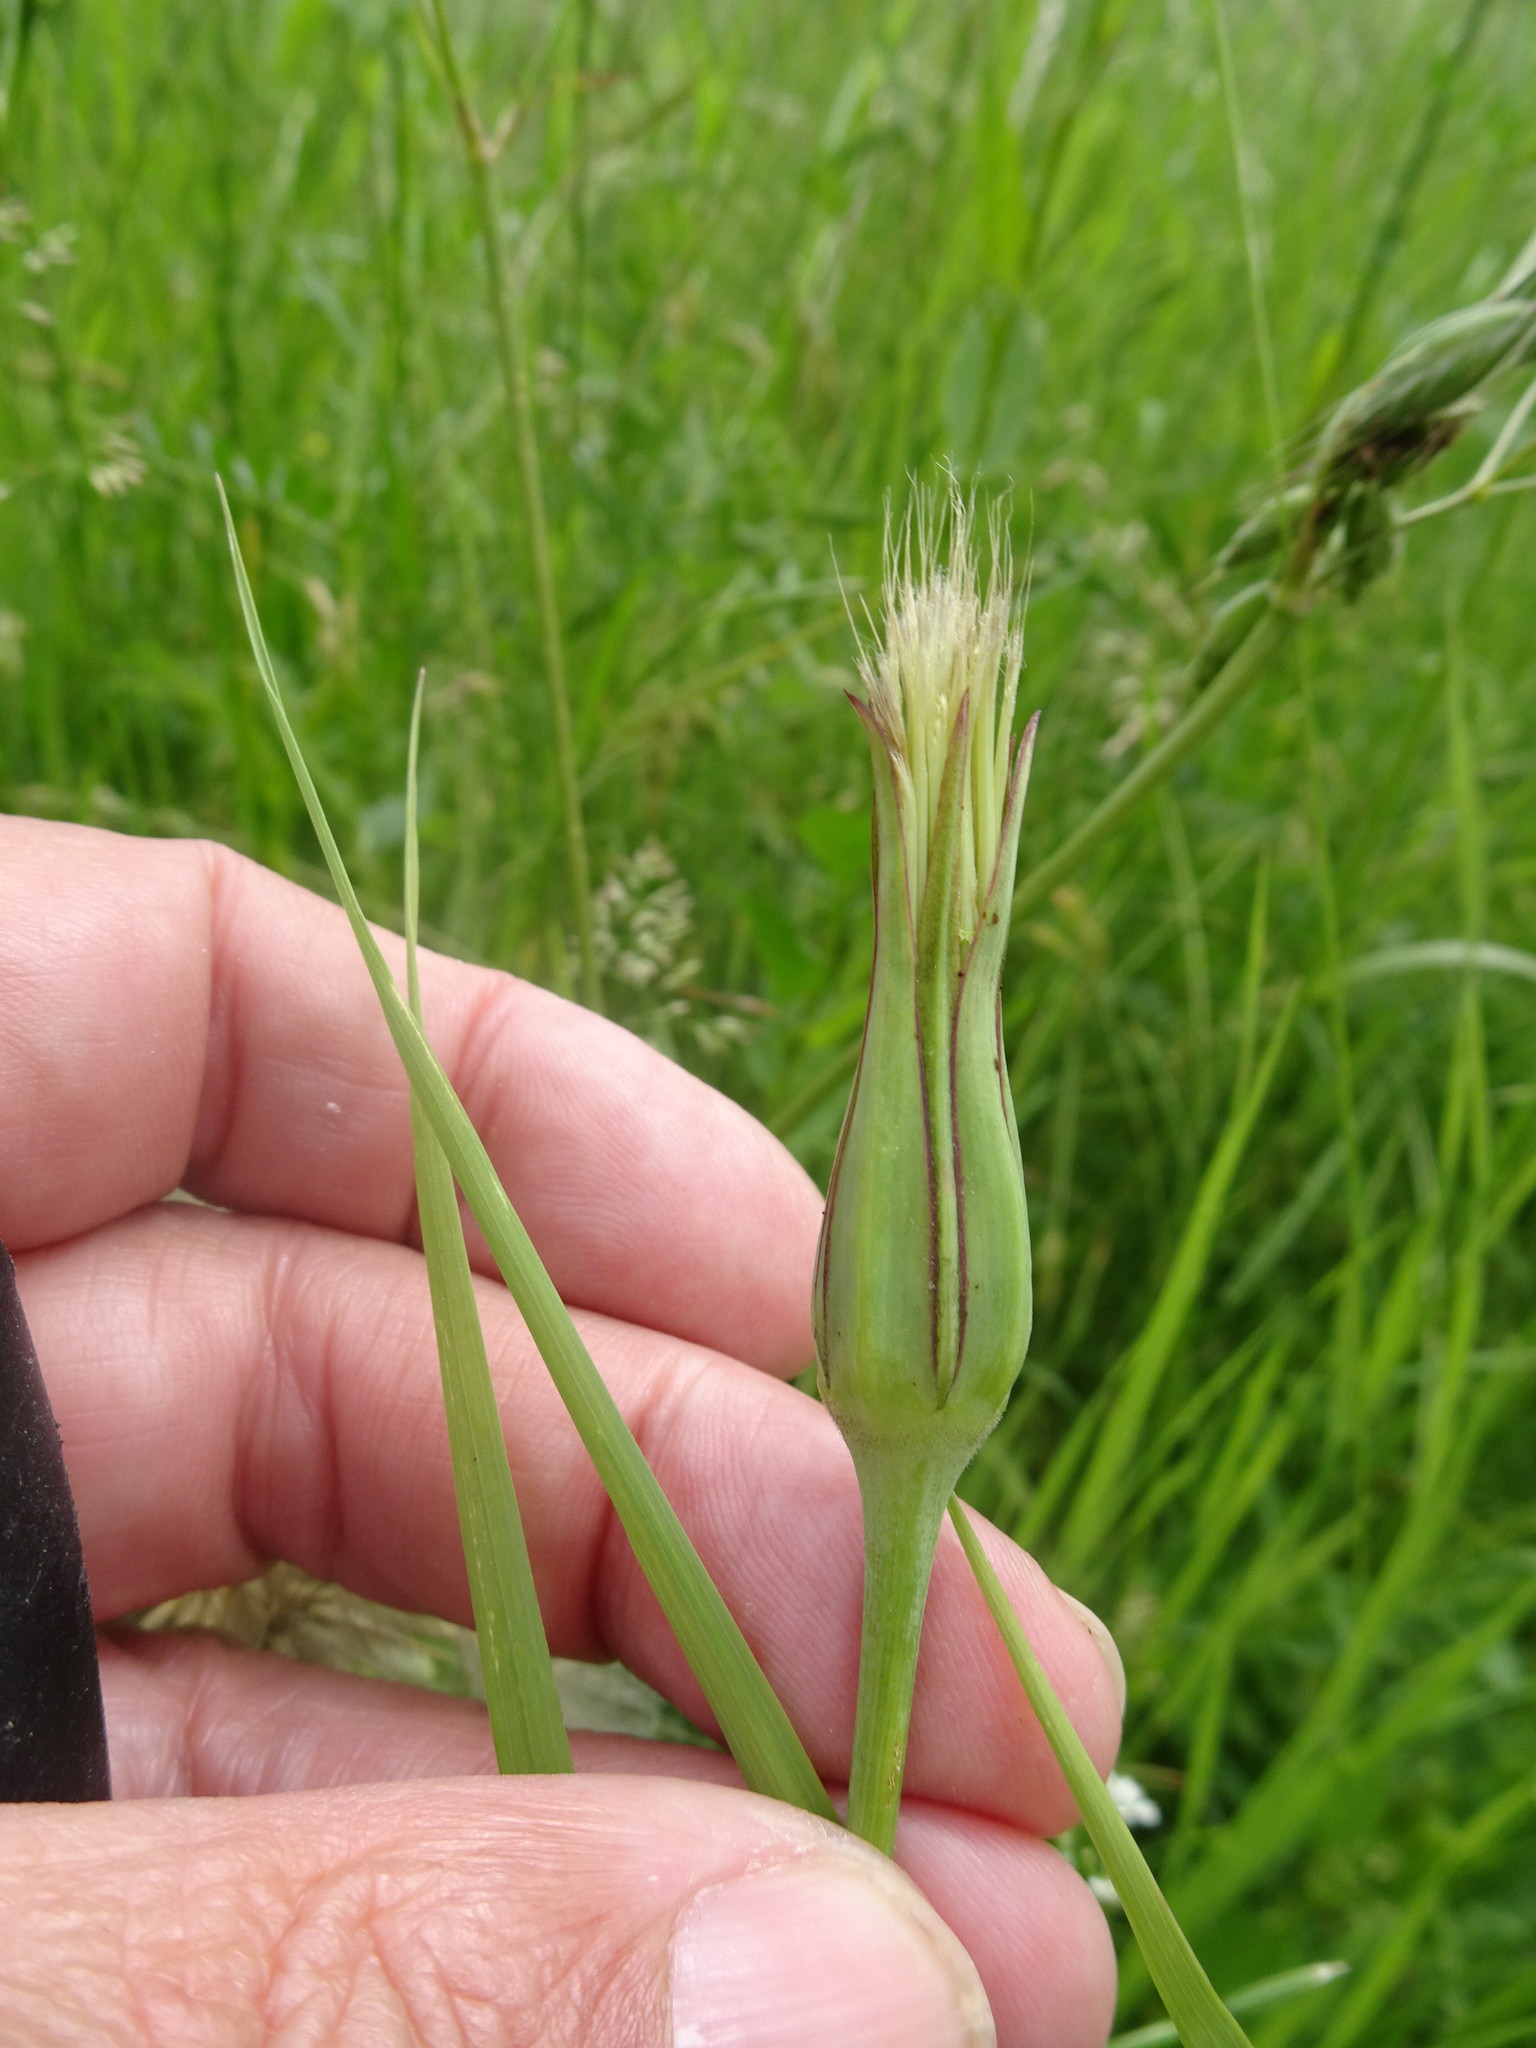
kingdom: Plantae
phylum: Tracheophyta
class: Magnoliopsida
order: Asterales
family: Asteraceae
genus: Tragopogon
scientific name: Tragopogon pratensis
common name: Goat's-beard
